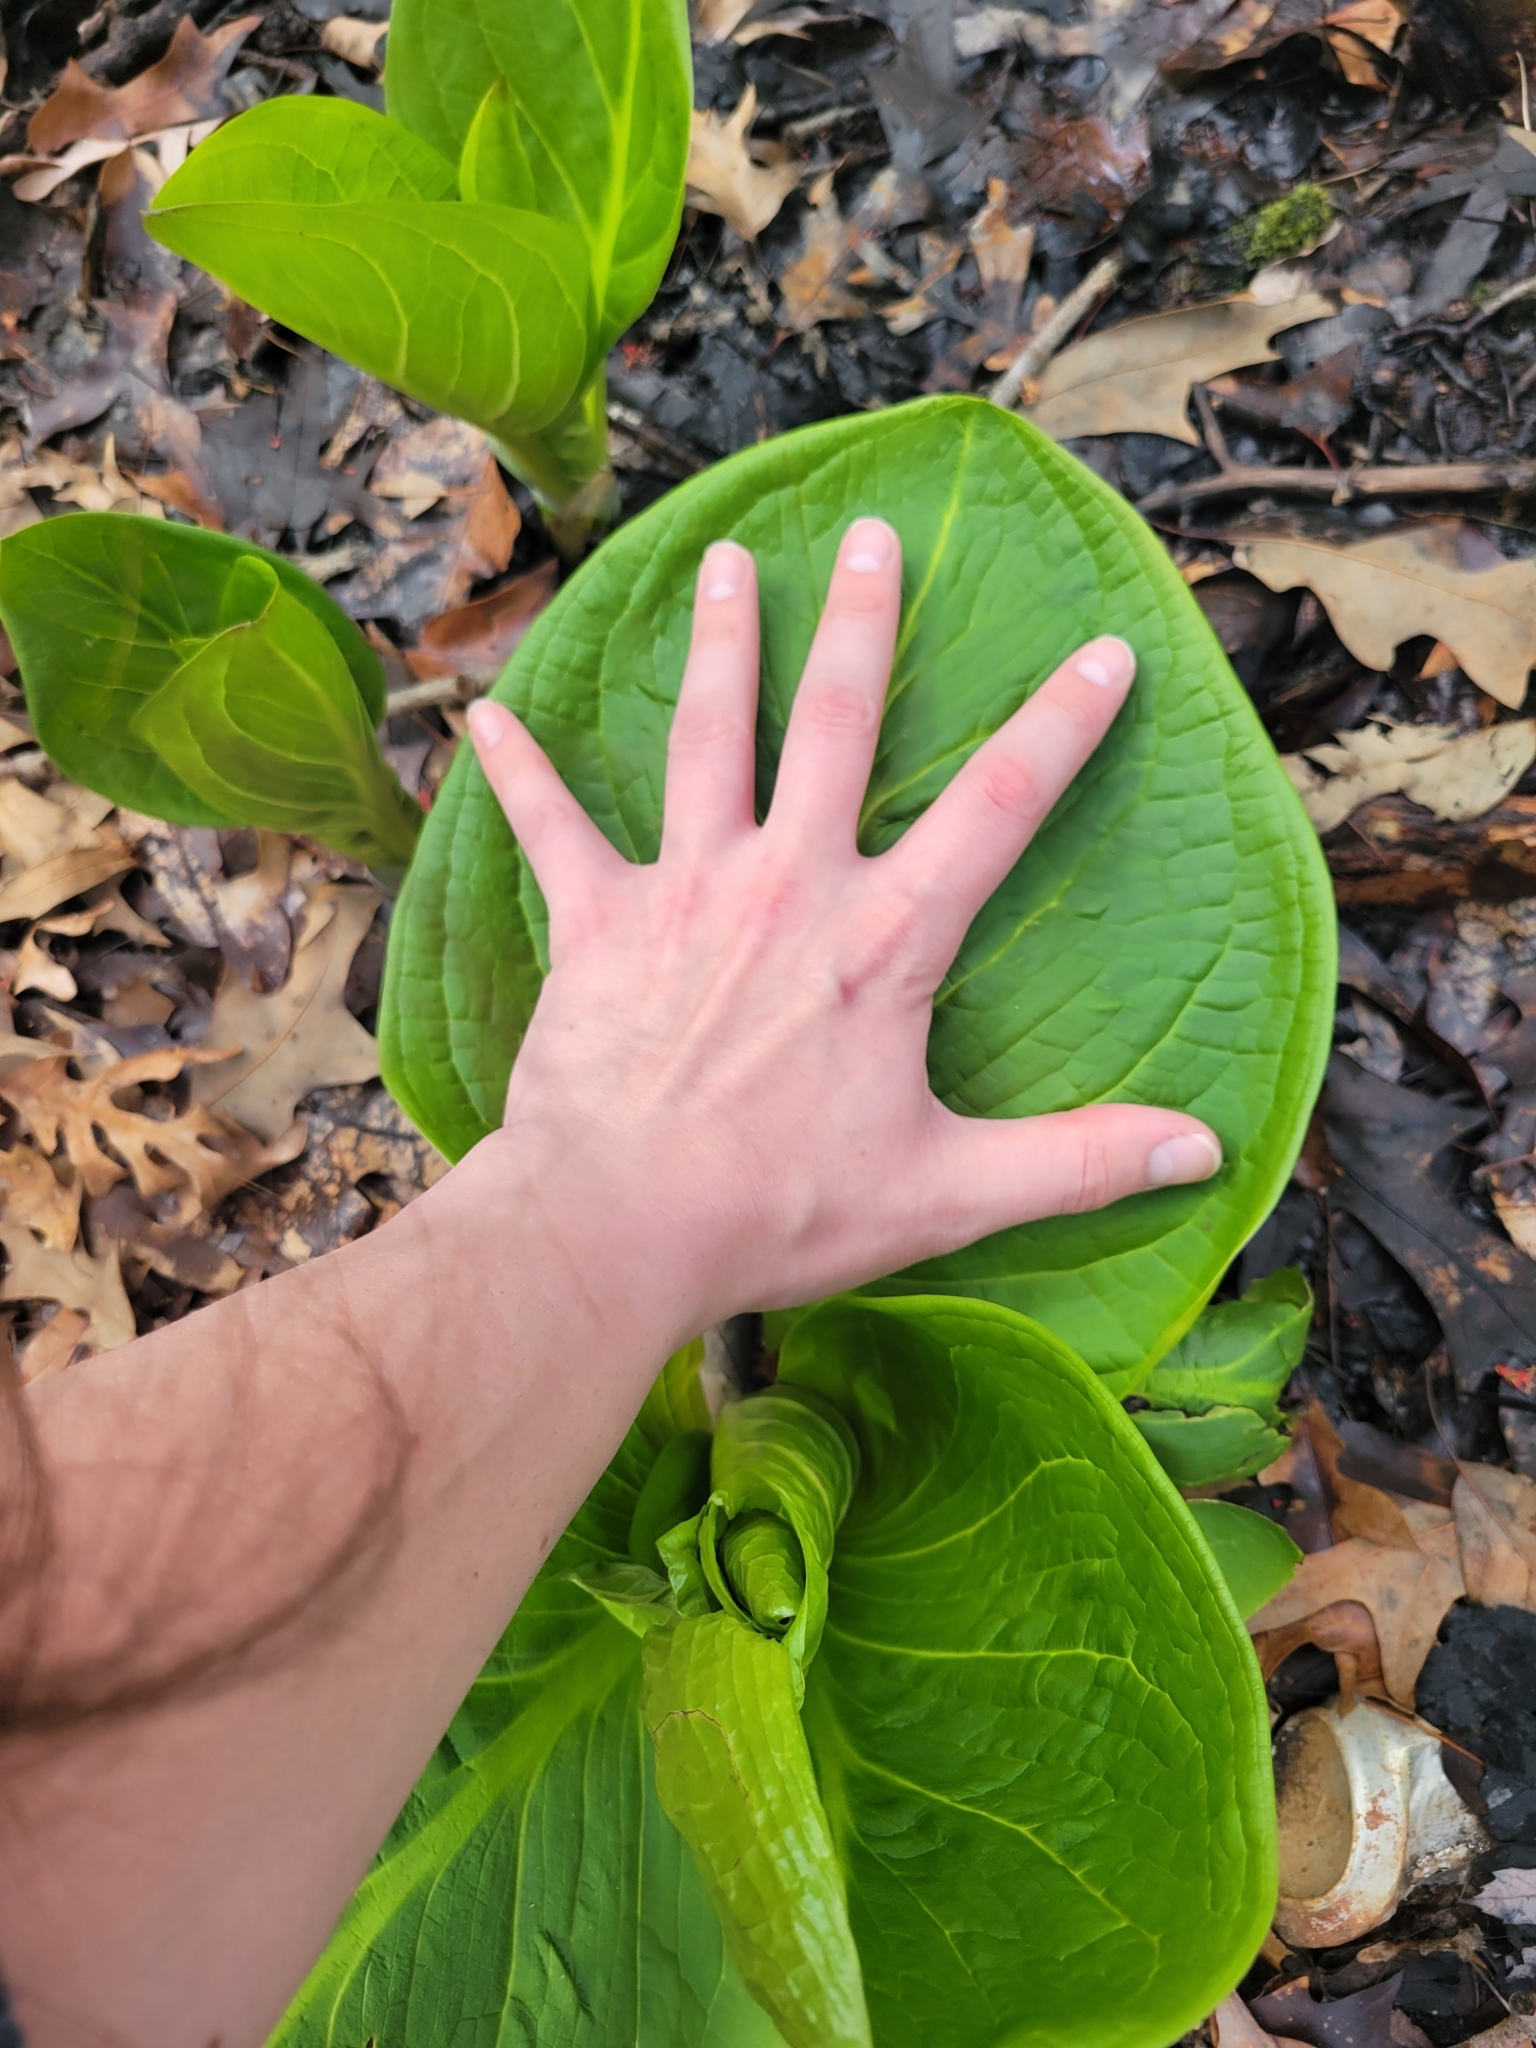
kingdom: Plantae
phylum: Tracheophyta
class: Liliopsida
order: Alismatales
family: Araceae
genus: Symplocarpus
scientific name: Symplocarpus foetidus
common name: Eastern skunk cabbage
